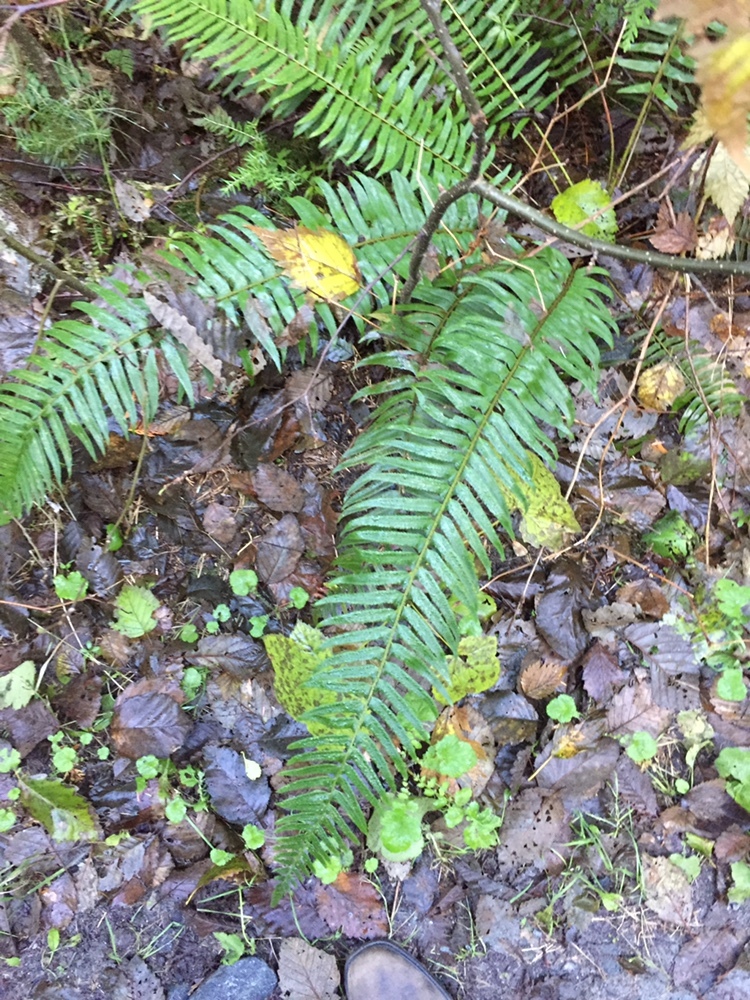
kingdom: Plantae
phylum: Tracheophyta
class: Polypodiopsida
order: Polypodiales
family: Dryopteridaceae
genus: Polystichum
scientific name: Polystichum munitum
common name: Western sword-fern
